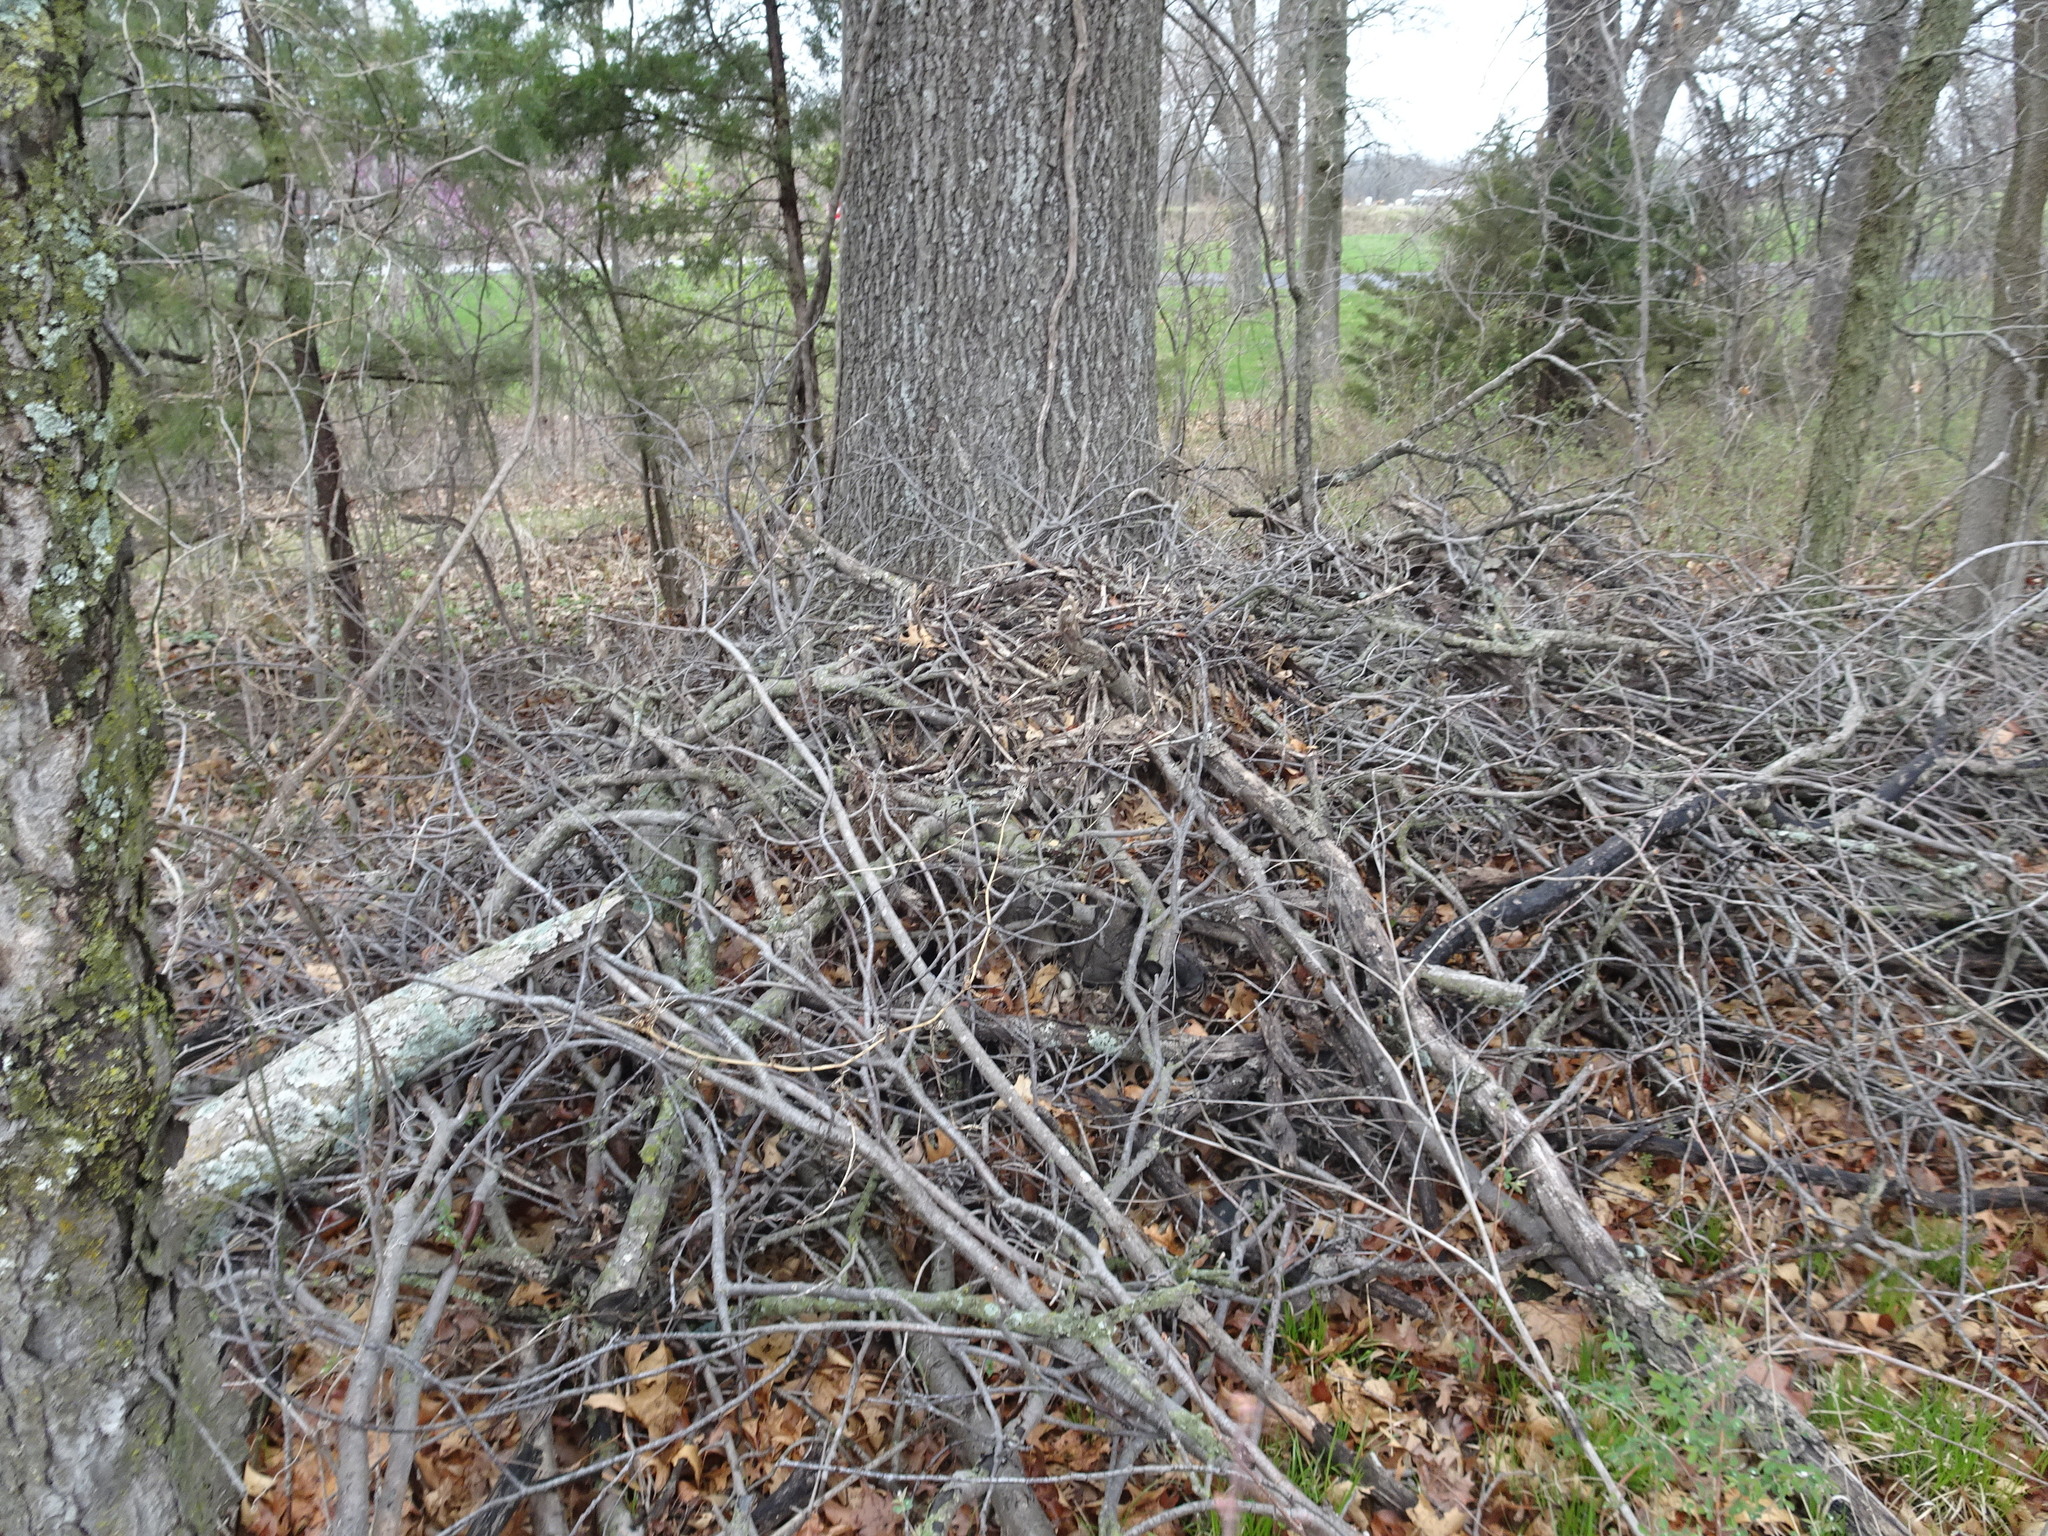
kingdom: Animalia
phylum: Chordata
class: Mammalia
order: Rodentia
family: Cricetidae
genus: Neotoma
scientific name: Neotoma floridana
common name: Eastern woodrat
